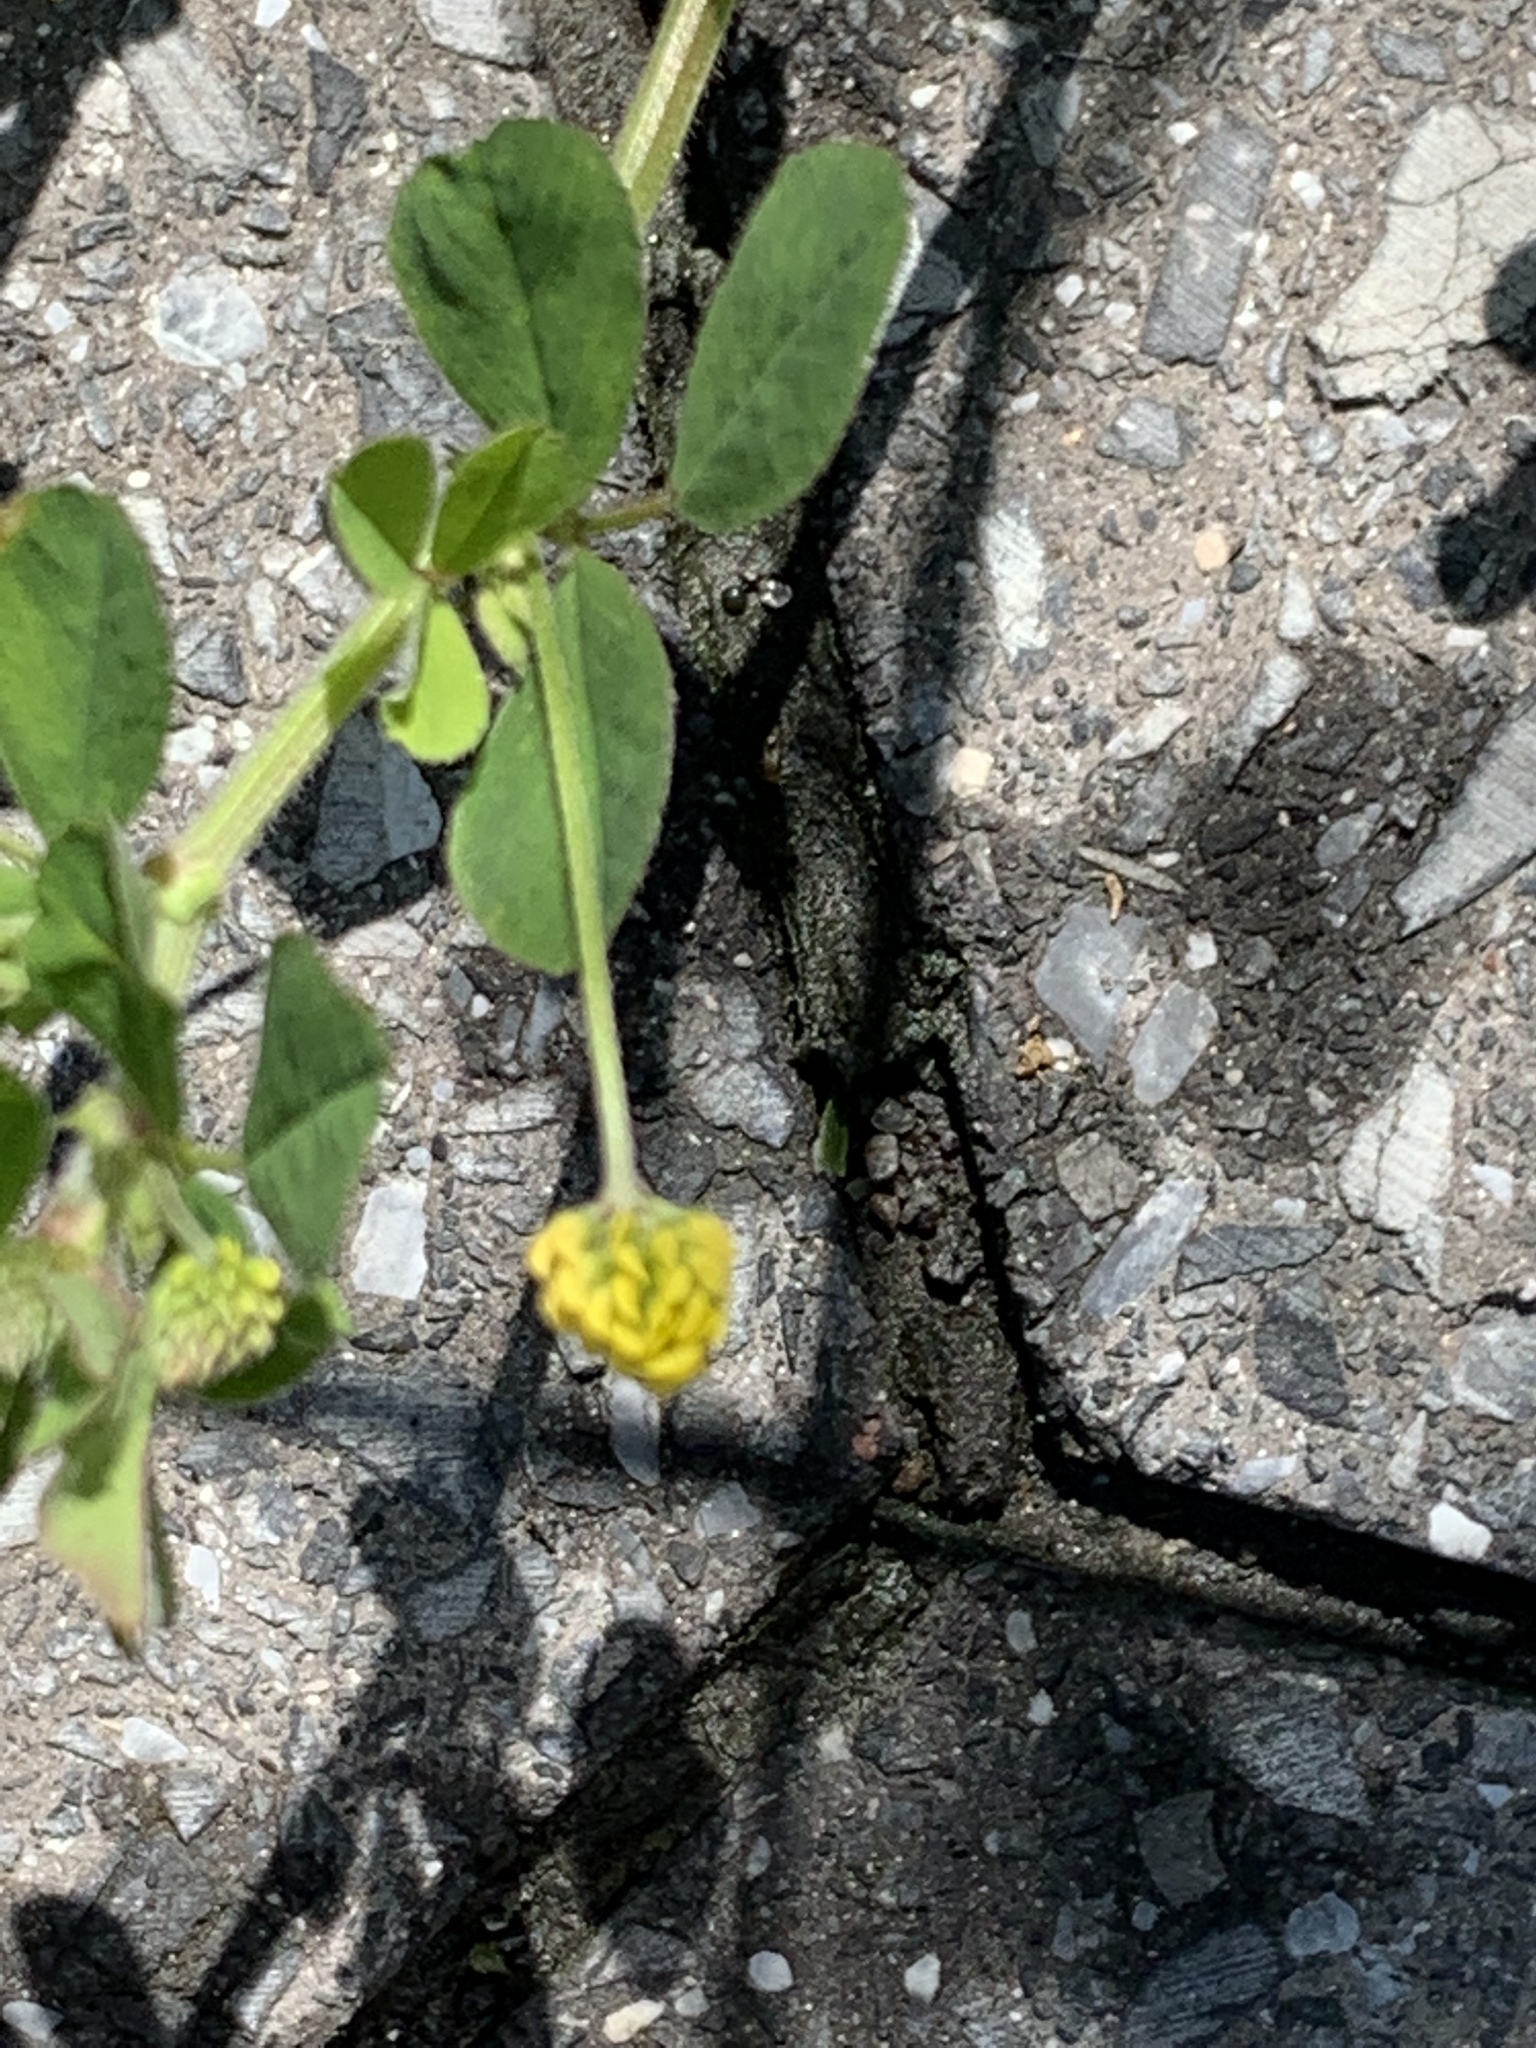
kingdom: Plantae
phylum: Tracheophyta
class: Magnoliopsida
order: Fabales
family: Fabaceae
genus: Medicago
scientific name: Medicago lupulina
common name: Black medick
